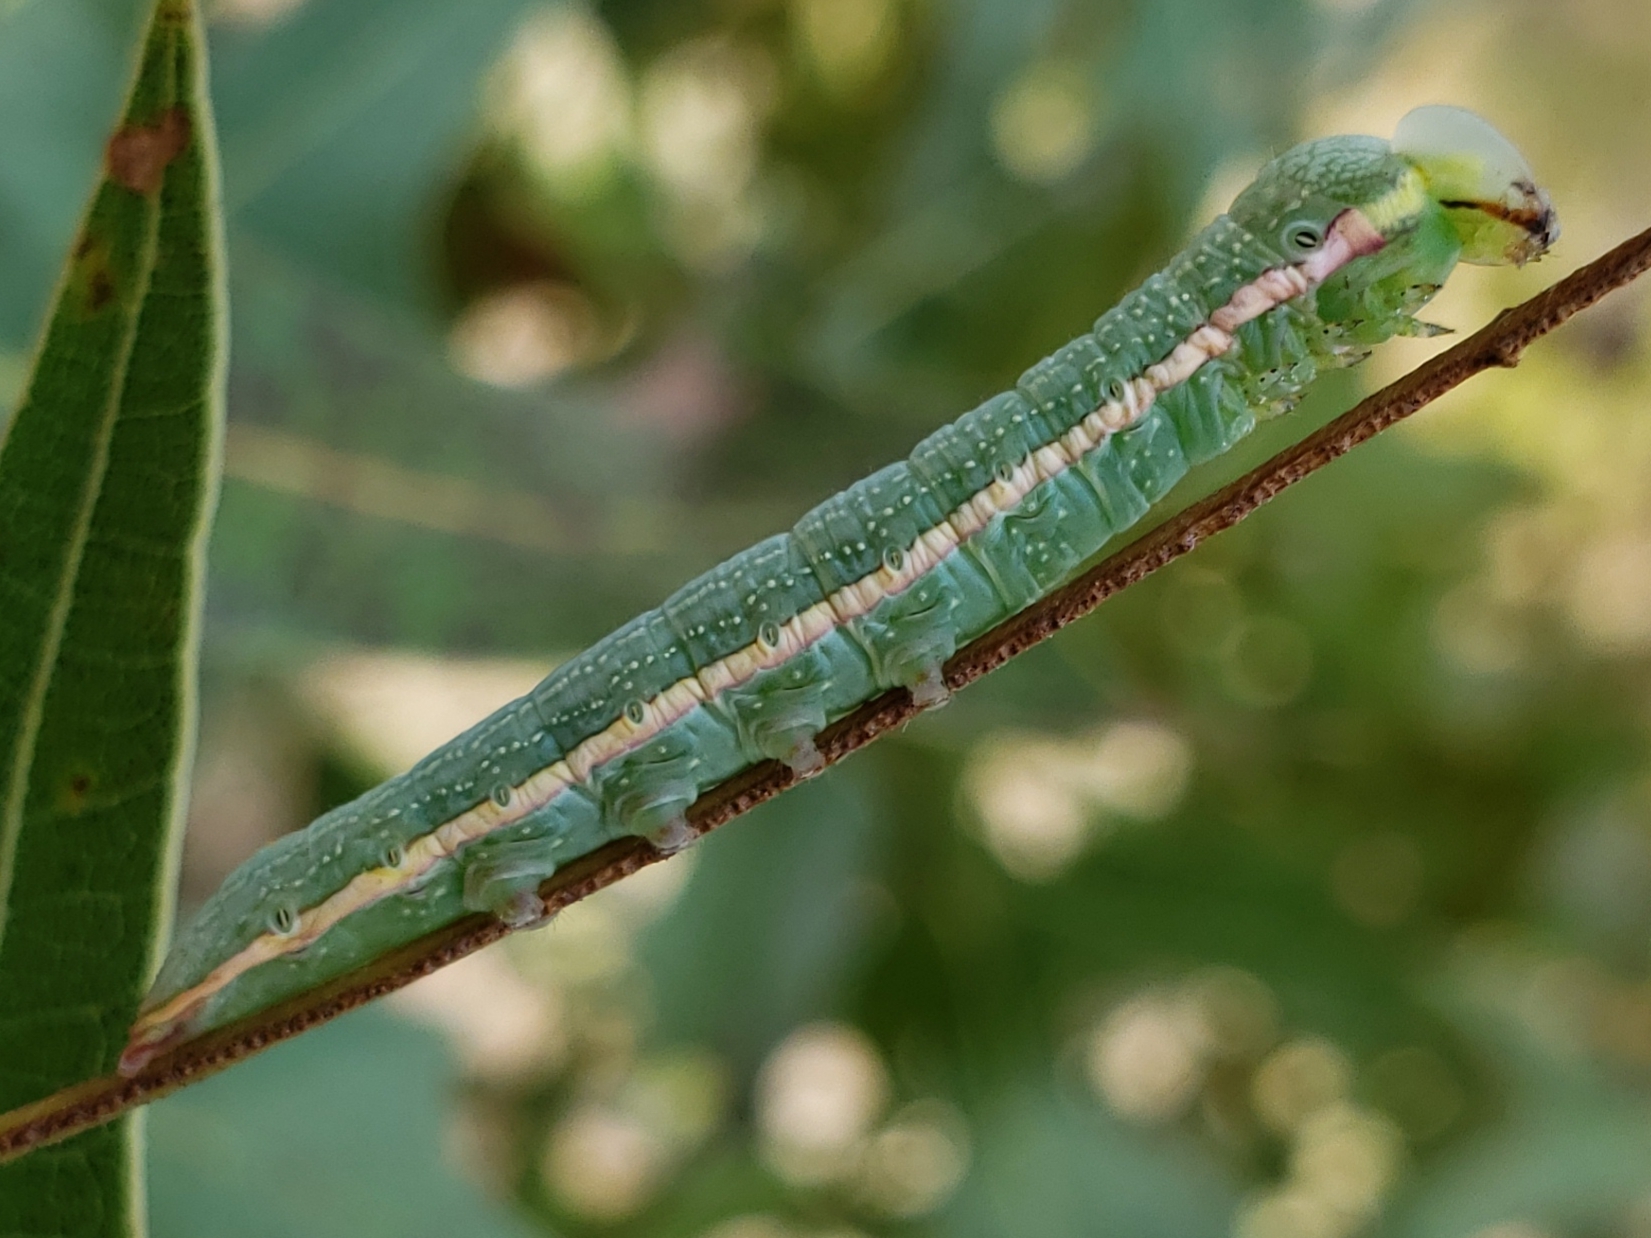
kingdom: Animalia
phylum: Arthropoda
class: Insecta
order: Lepidoptera
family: Notodontidae
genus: Paraeschra
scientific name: Paraeschra georgica
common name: Georgian prominent
